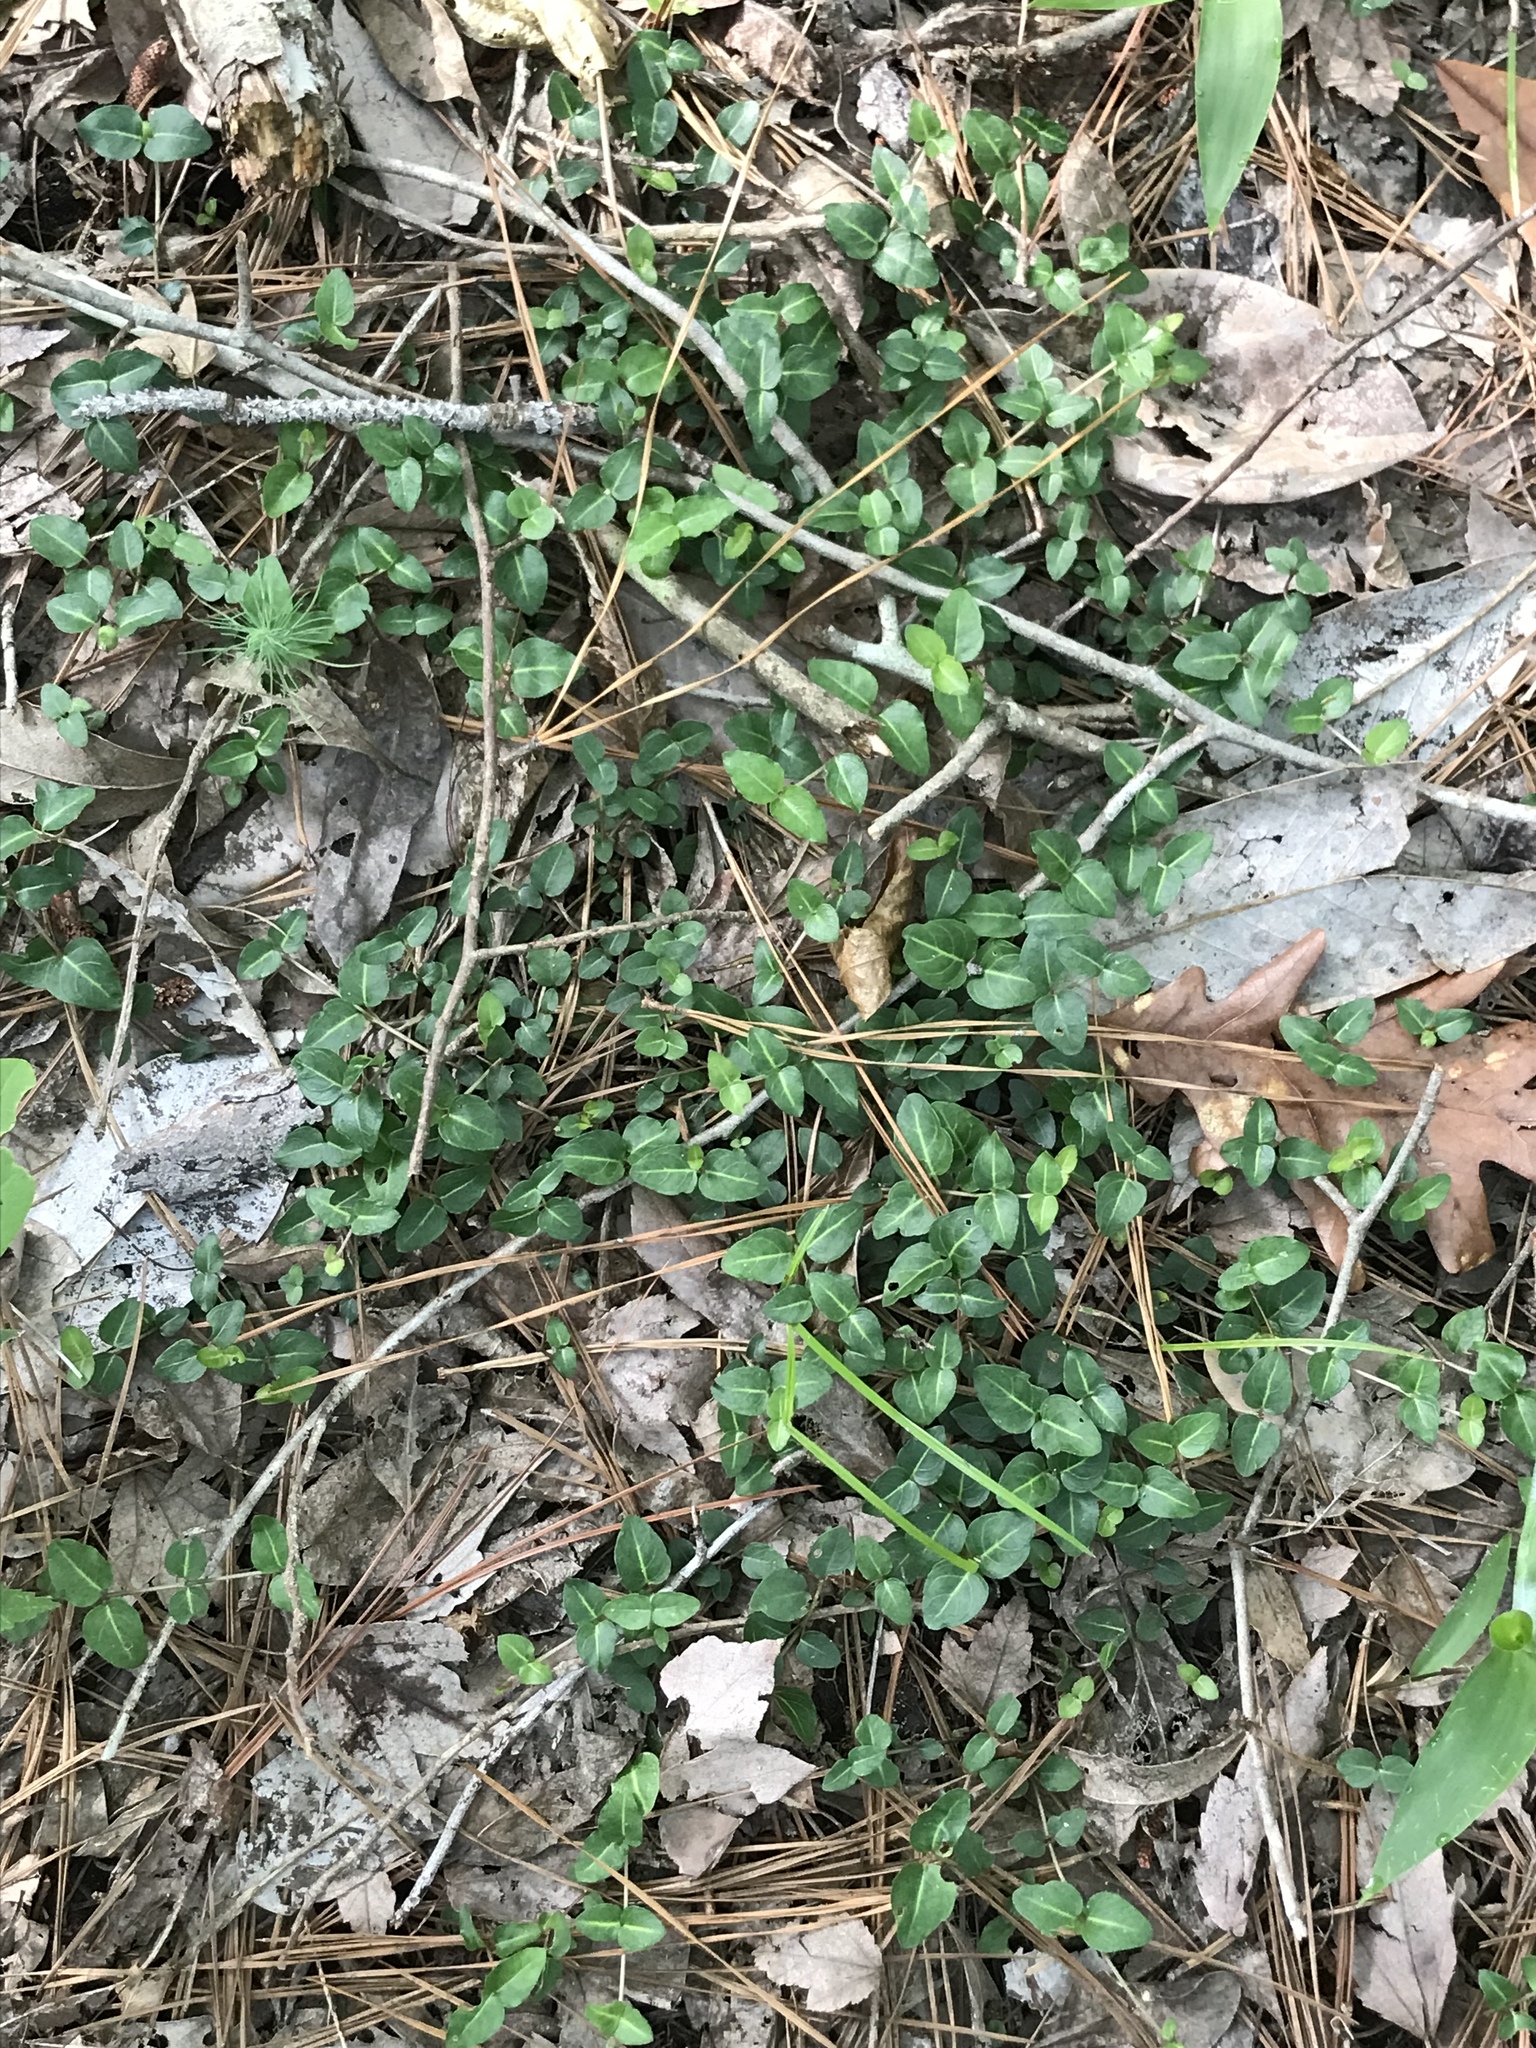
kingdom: Plantae
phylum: Tracheophyta
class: Magnoliopsida
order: Gentianales
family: Rubiaceae
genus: Mitchella
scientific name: Mitchella repens
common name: Partridge-berry
